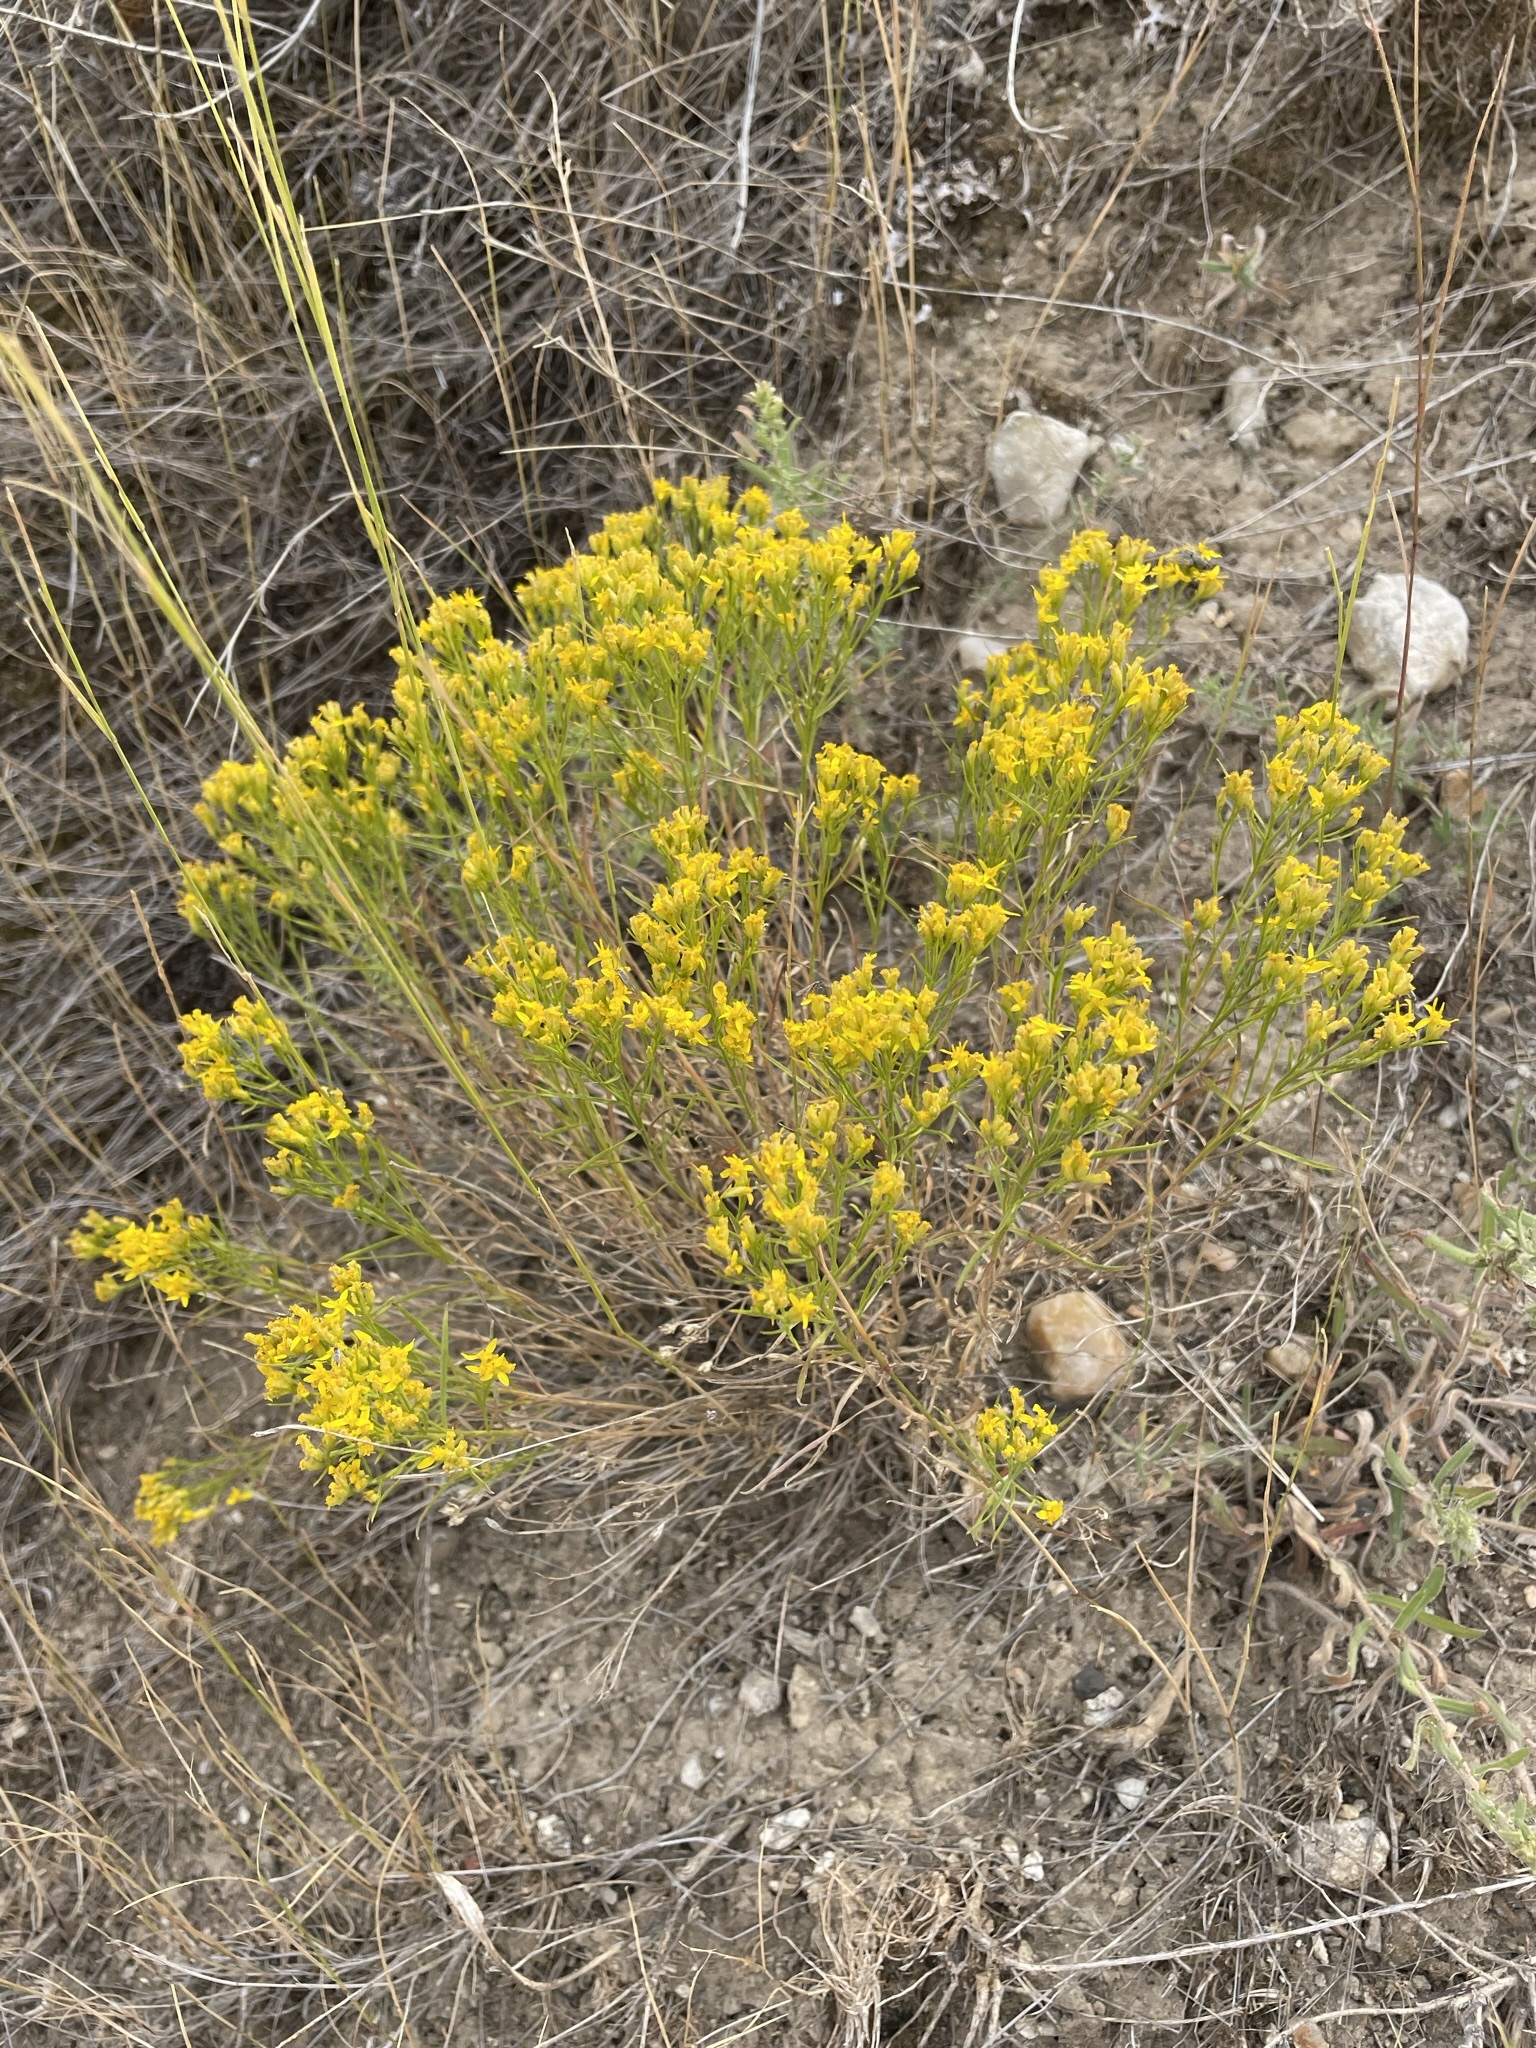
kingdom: Plantae
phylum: Tracheophyta
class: Magnoliopsida
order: Asterales
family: Asteraceae
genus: Gutierrezia
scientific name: Gutierrezia sarothrae
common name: Broom snakeweed
